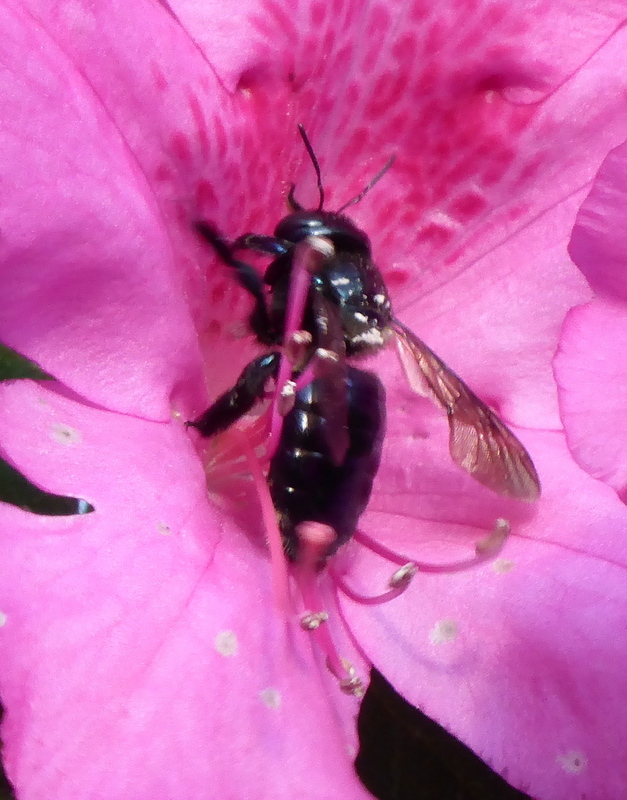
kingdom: Animalia
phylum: Arthropoda
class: Insecta
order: Hymenoptera
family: Apidae
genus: Xylocopa
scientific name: Xylocopa micans
